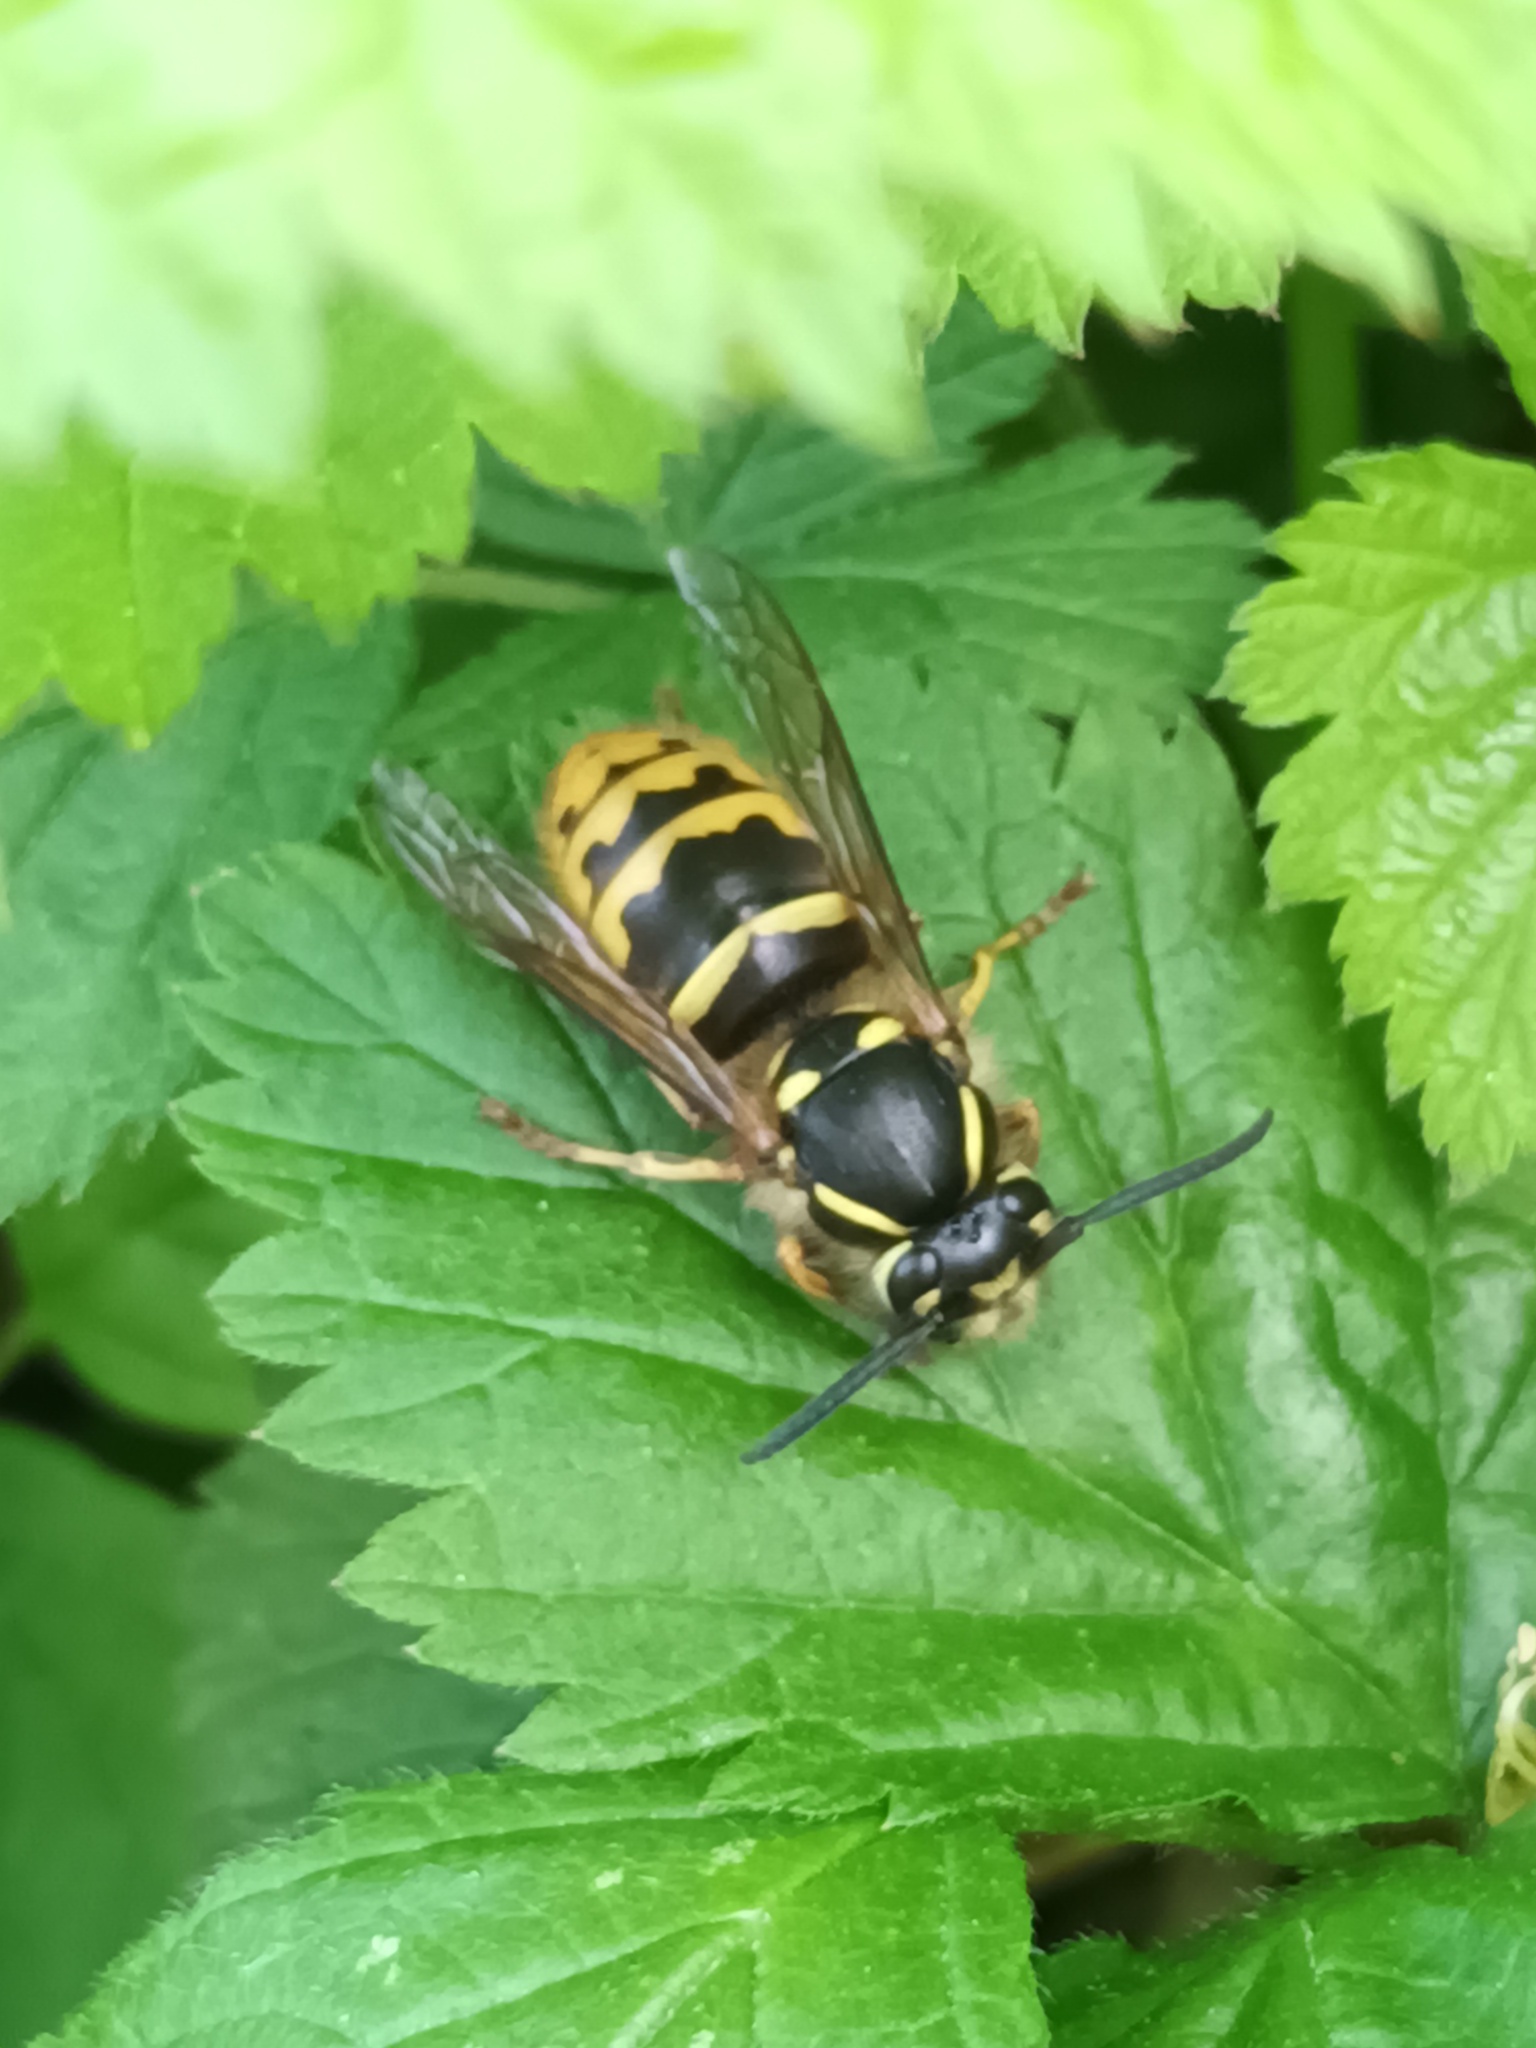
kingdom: Animalia
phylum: Arthropoda
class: Insecta
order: Hymenoptera
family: Vespidae
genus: Vespula
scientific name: Vespula vulgaris
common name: Common wasp
